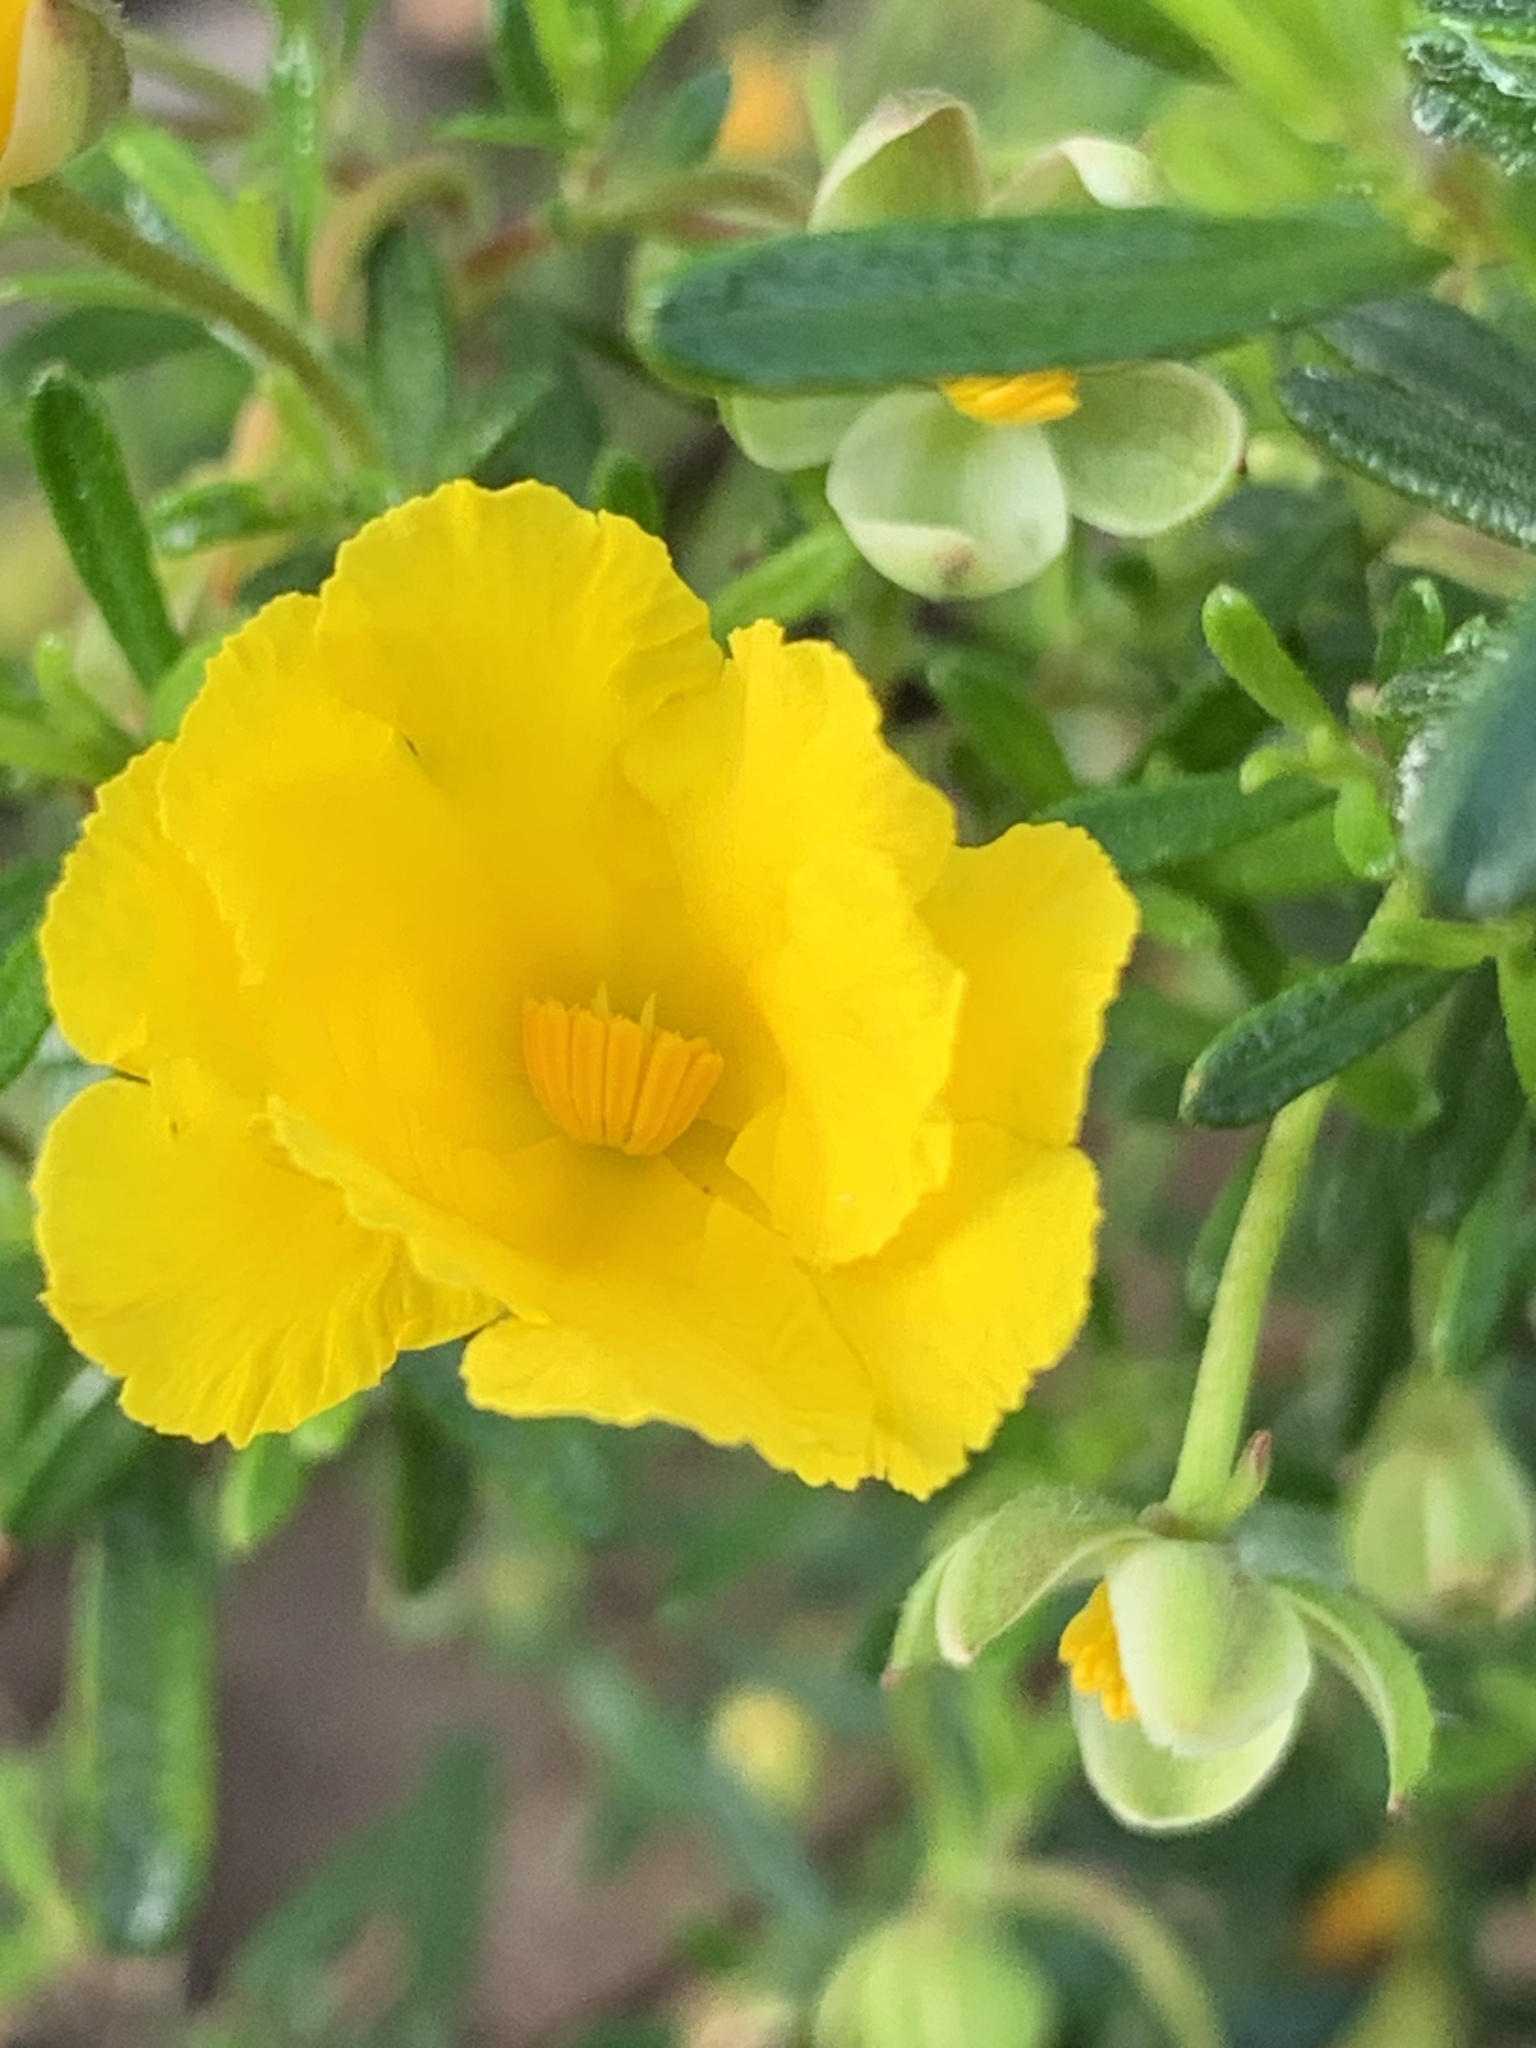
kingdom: Plantae
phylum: Tracheophyta
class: Magnoliopsida
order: Dilleniales
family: Dilleniaceae
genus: Hibbertia
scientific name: Hibbertia hypericoides
